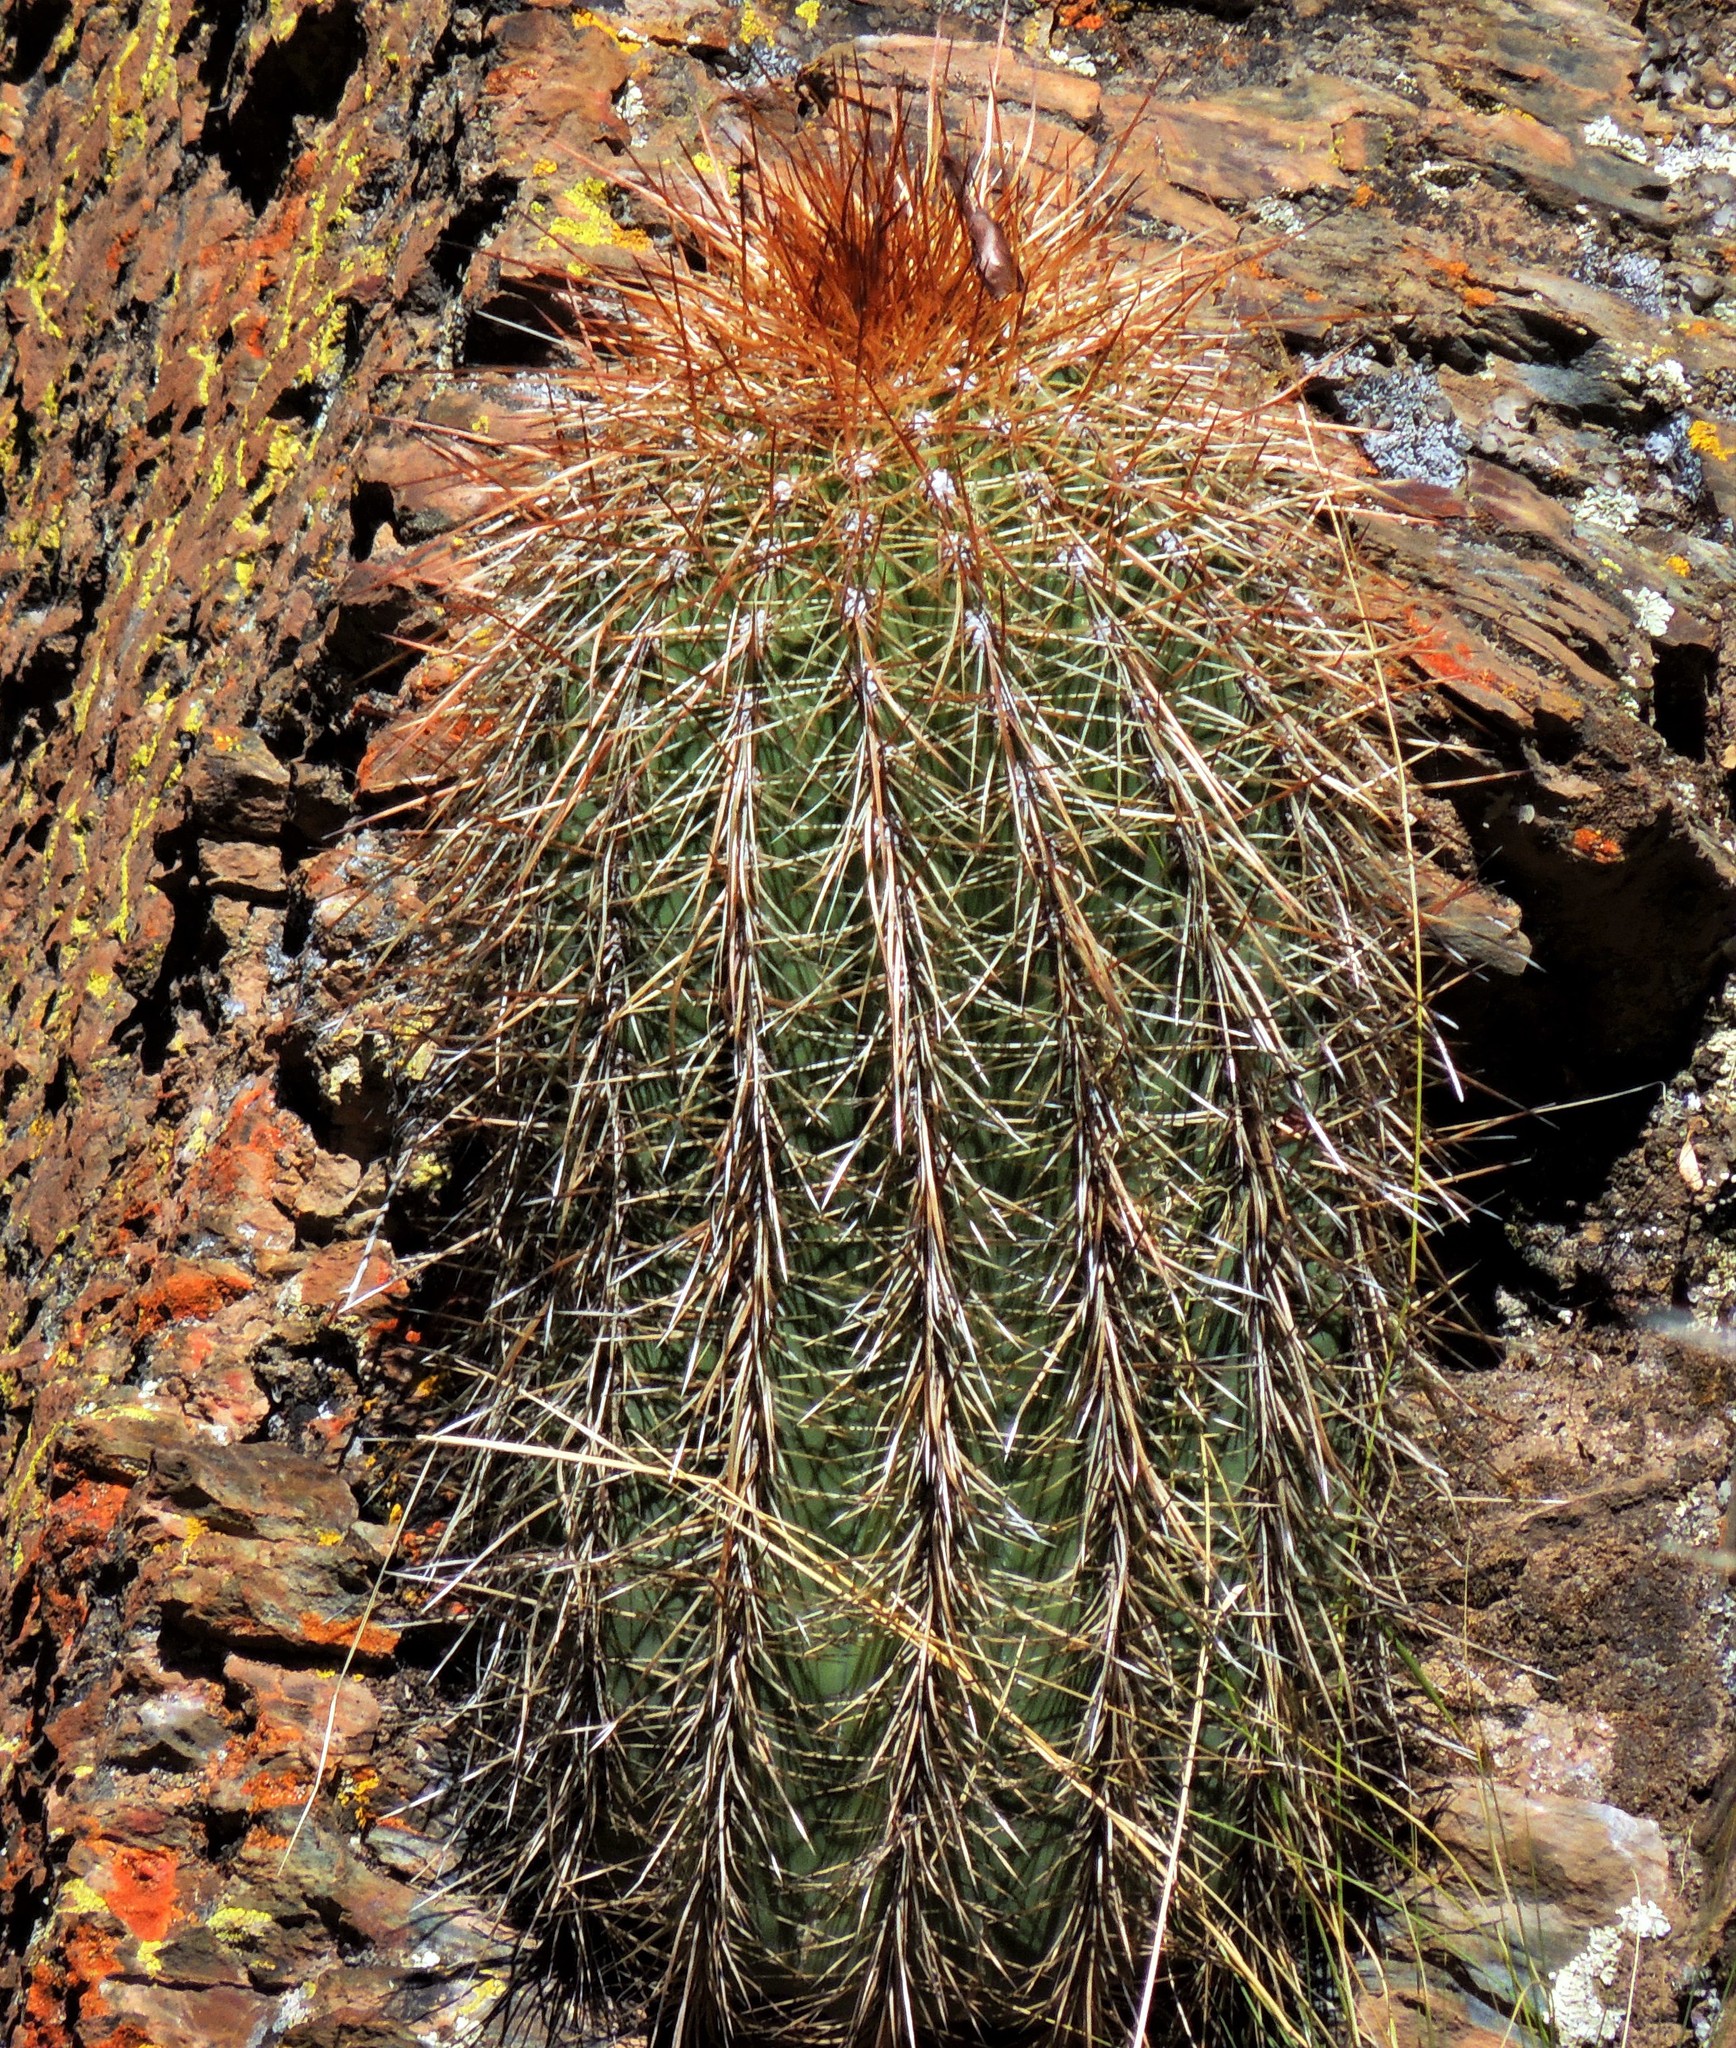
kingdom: Plantae
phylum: Tracheophyta
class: Magnoliopsida
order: Caryophyllales
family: Cactaceae
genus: Soehrensia
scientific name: Soehrensia tarijensis
